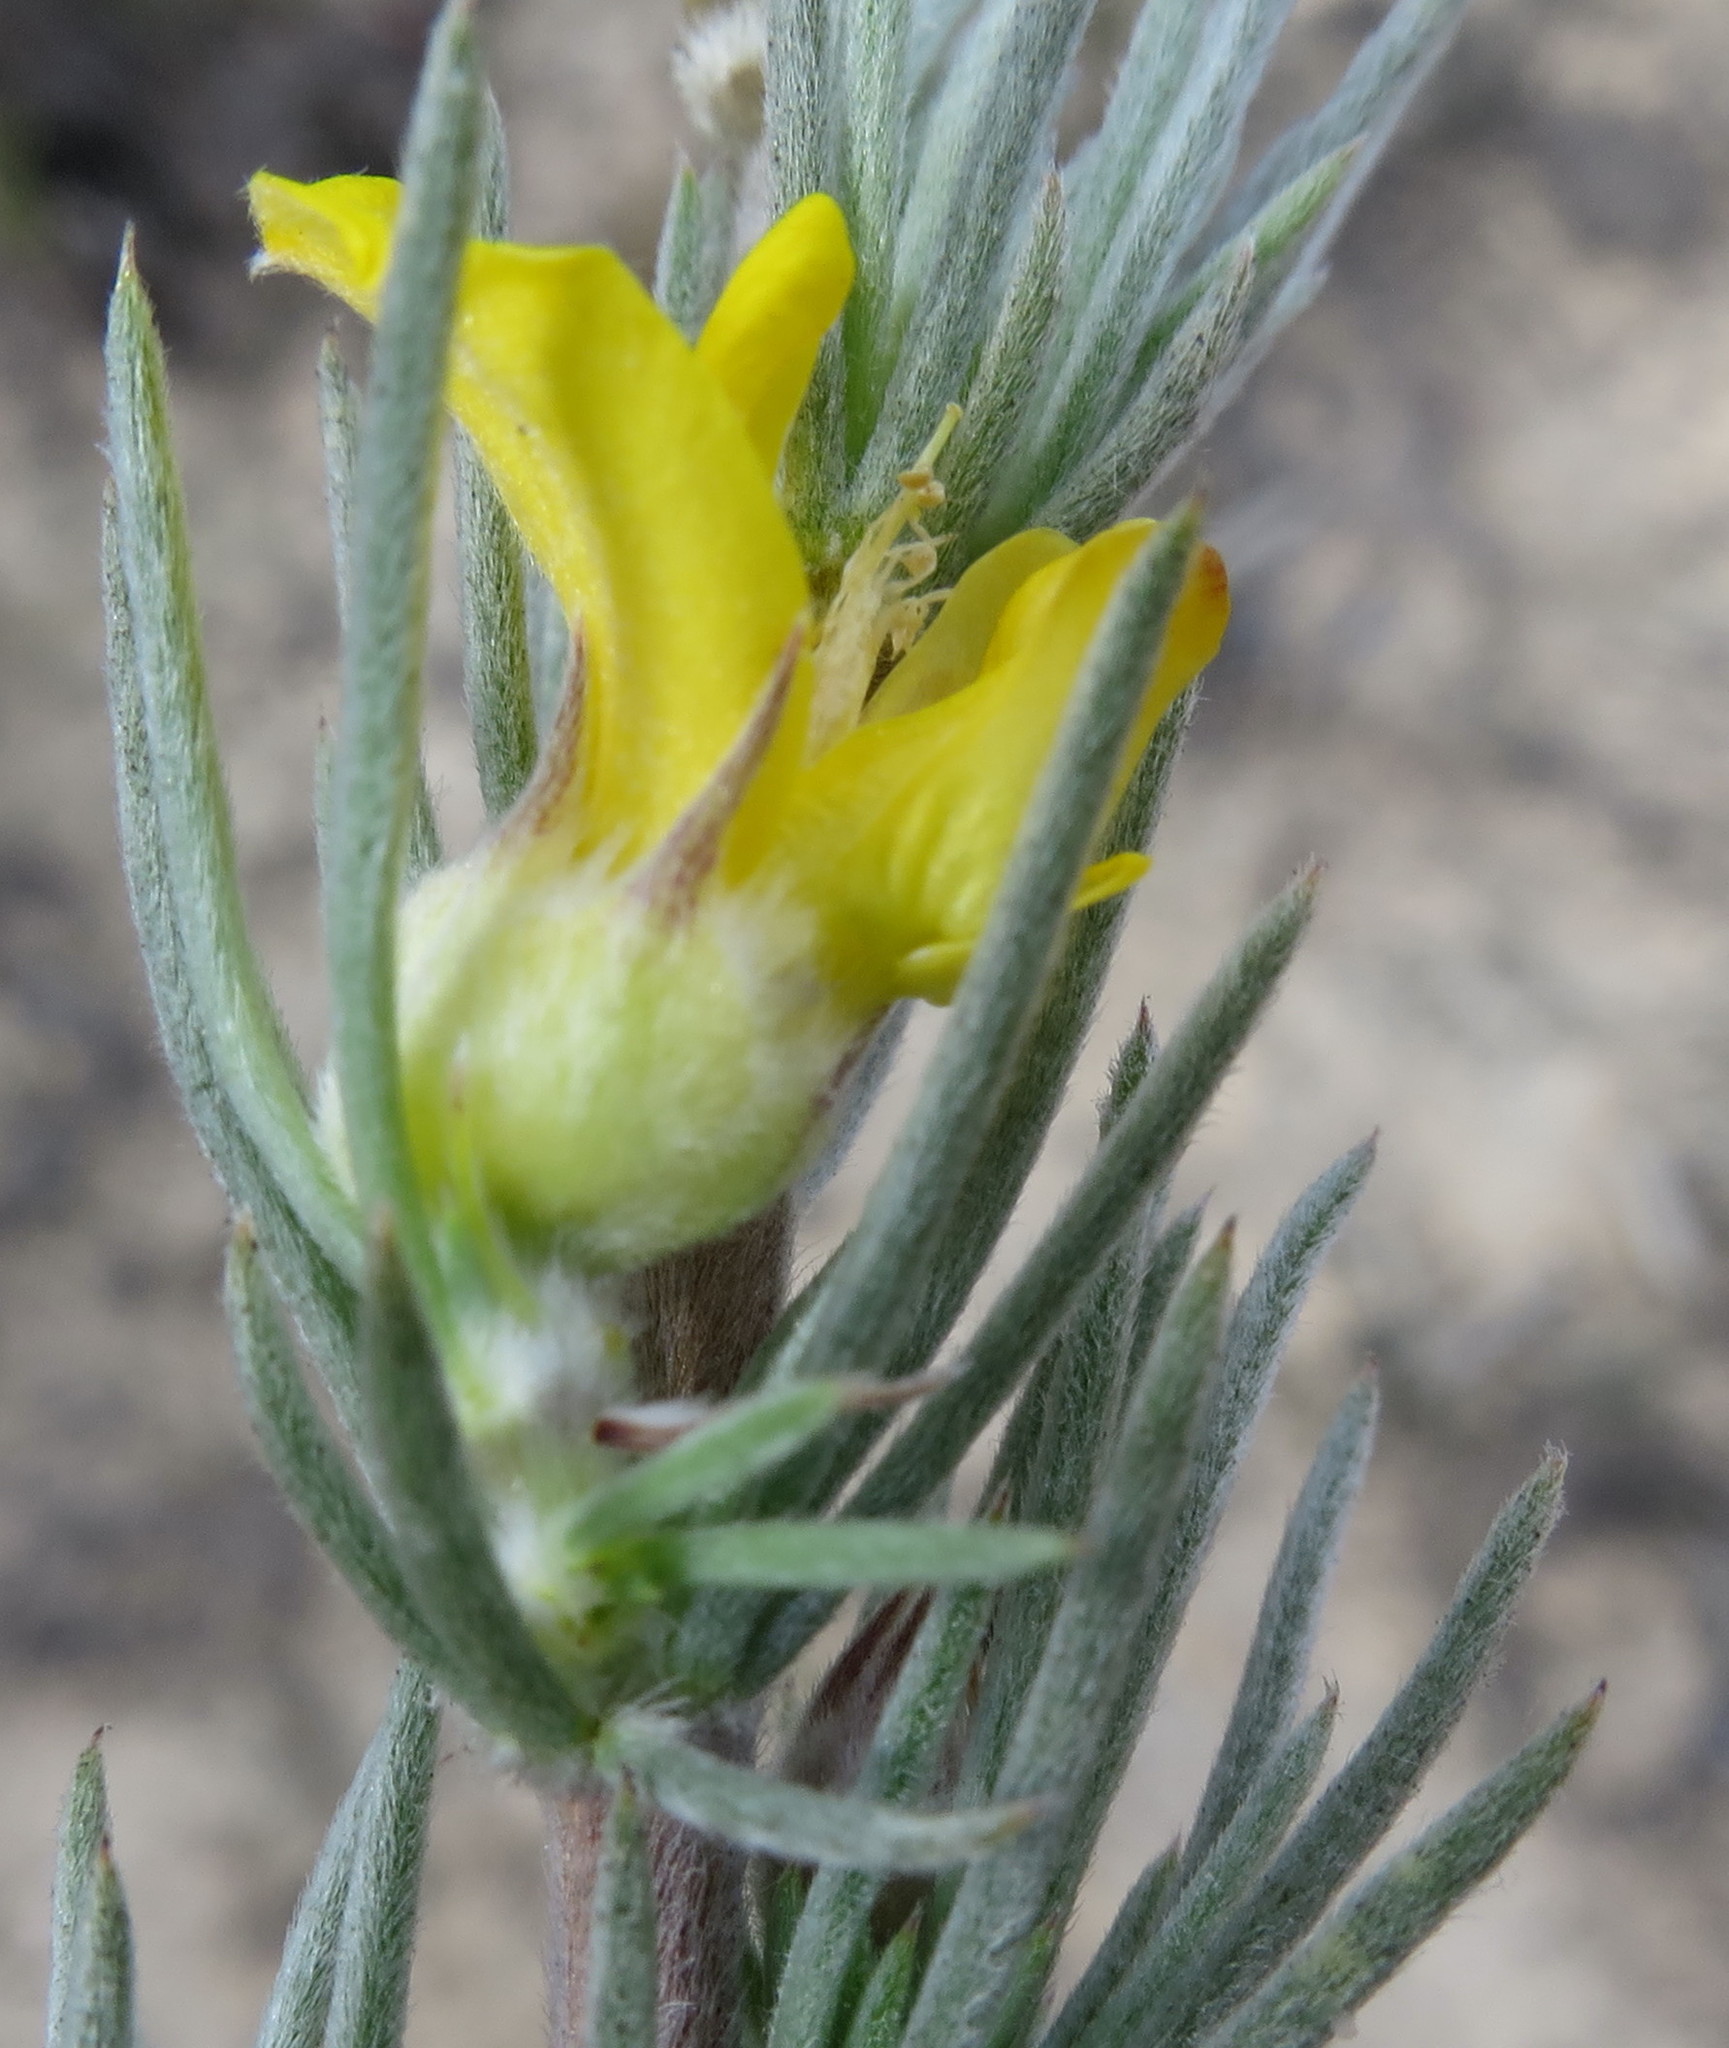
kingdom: Plantae
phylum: Tracheophyta
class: Magnoliopsida
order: Fabales
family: Fabaceae
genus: Aspalathus
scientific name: Aspalathus glabrescens
